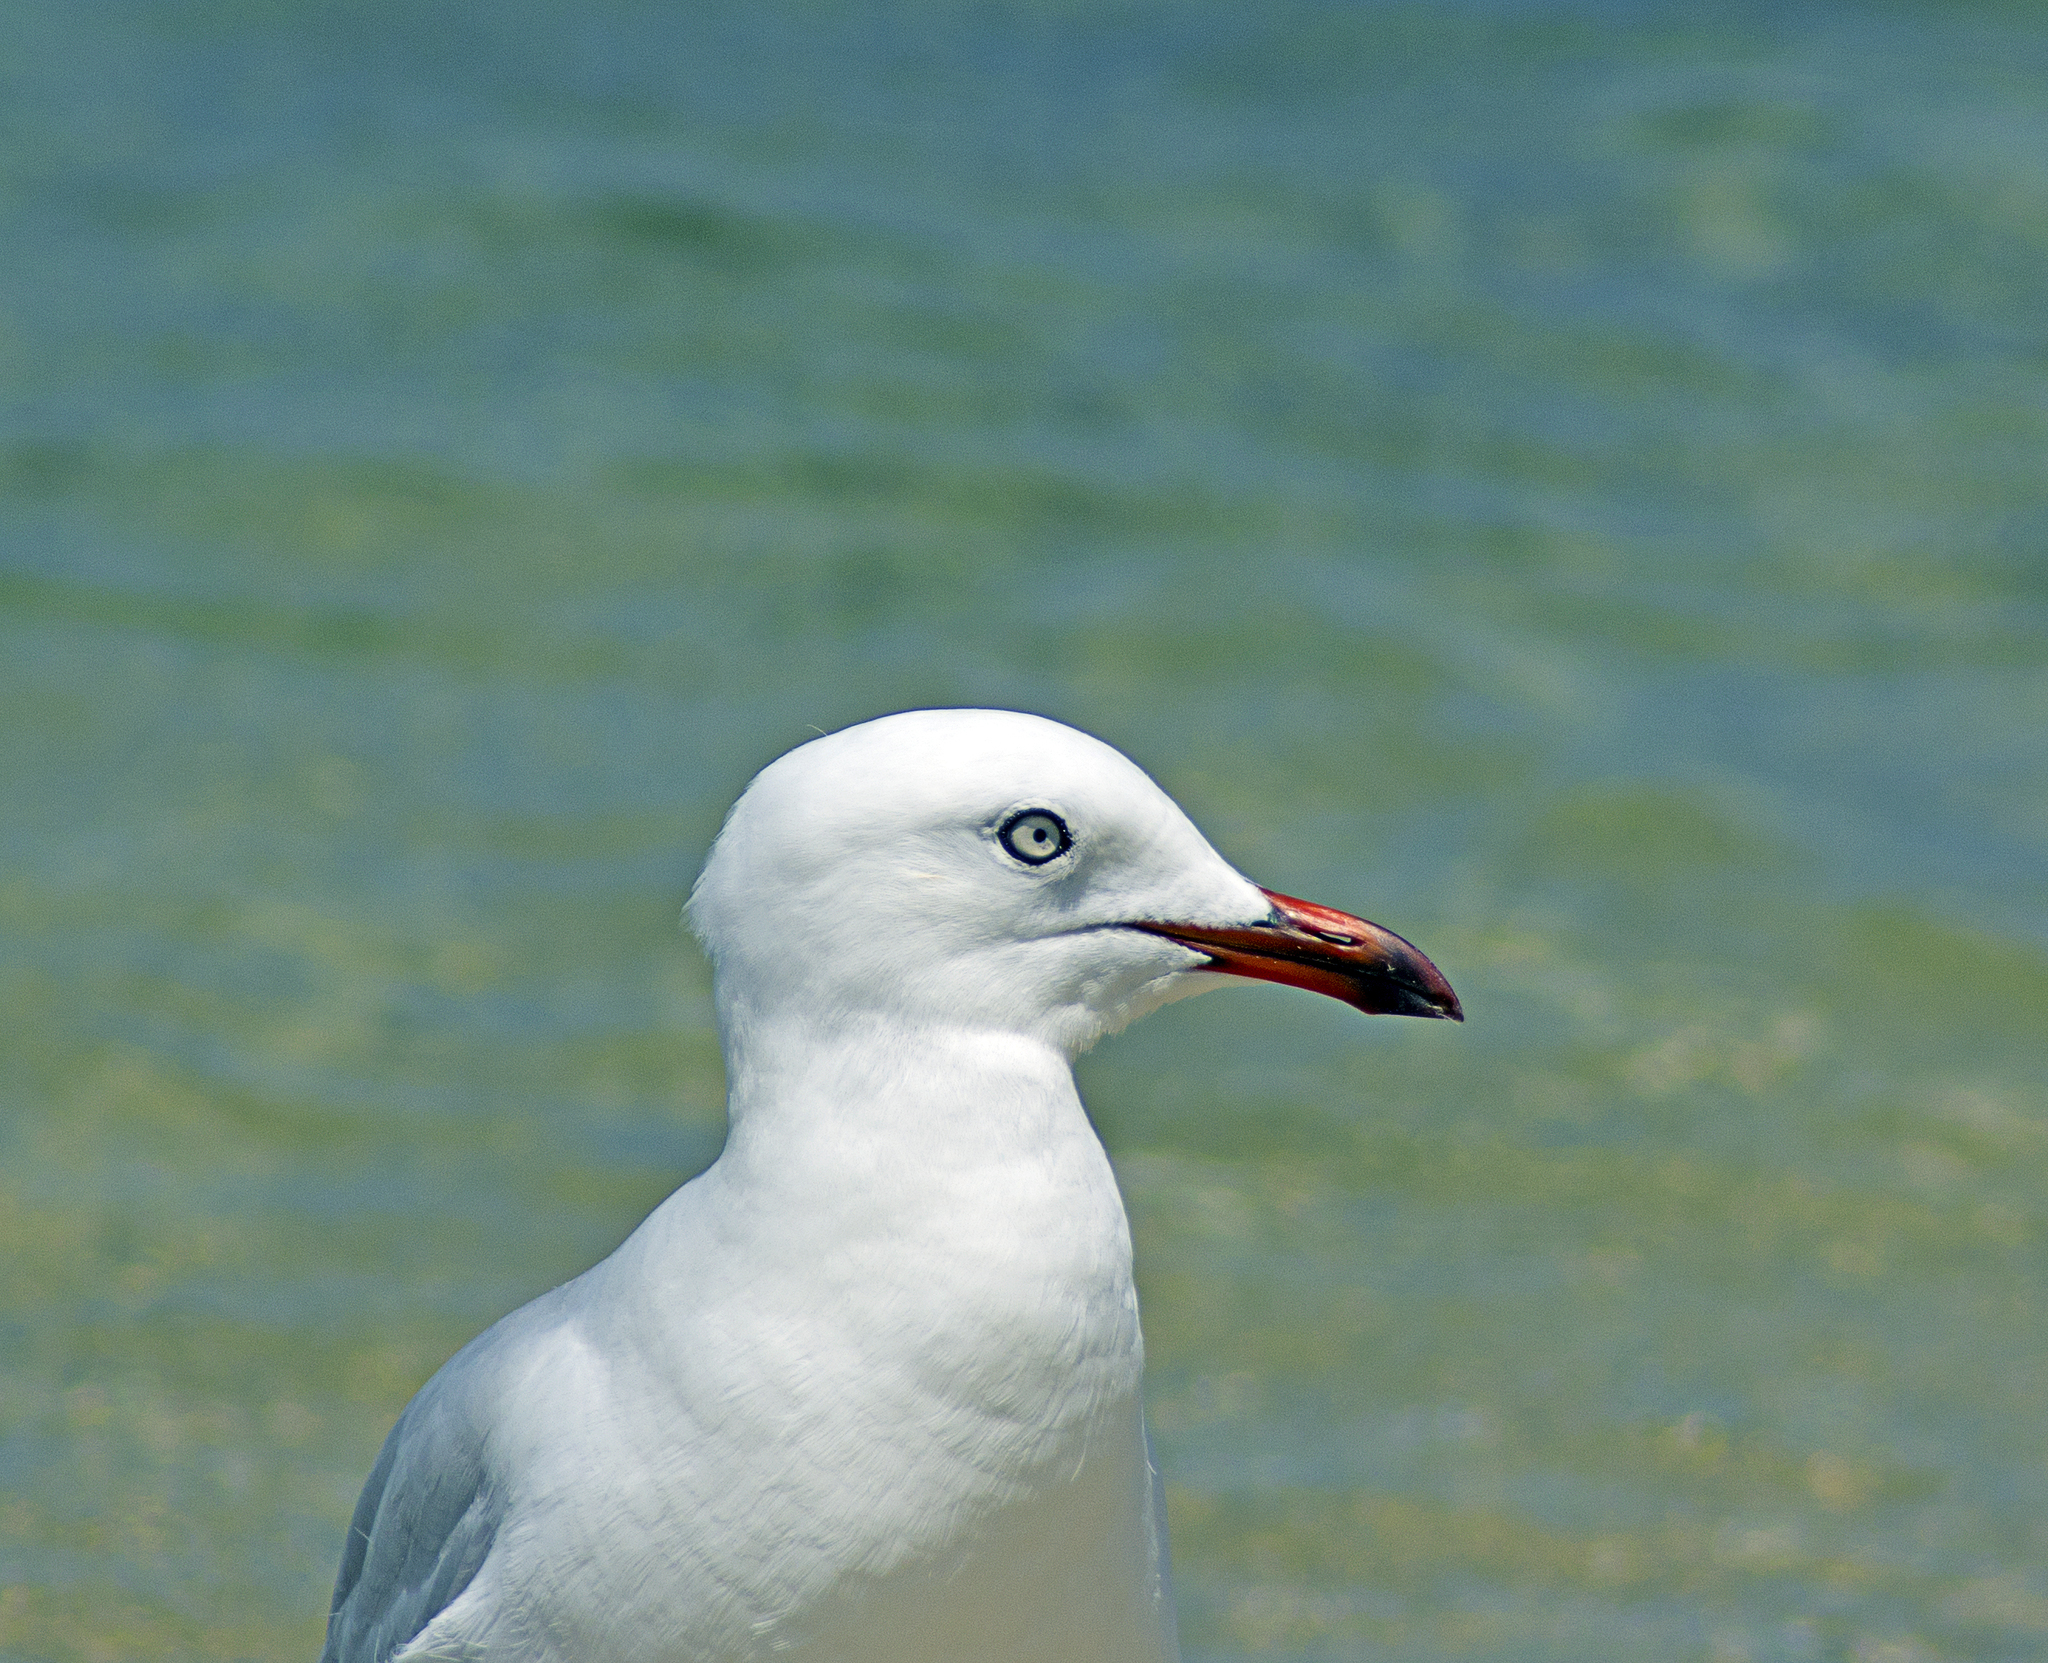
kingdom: Animalia
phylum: Chordata
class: Aves
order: Charadriiformes
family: Laridae
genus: Chroicocephalus
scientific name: Chroicocephalus novaehollandiae
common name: Silver gull
